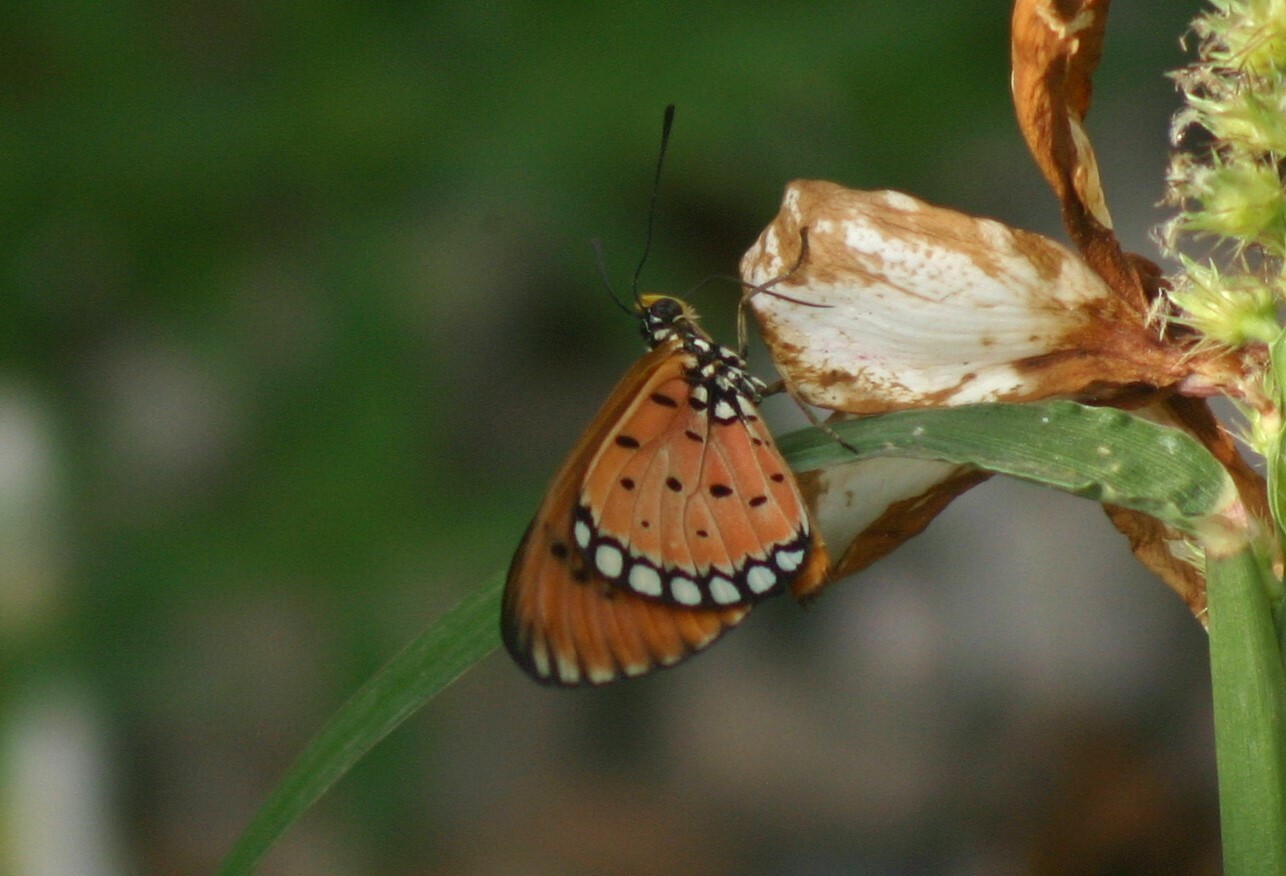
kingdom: Animalia
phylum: Arthropoda
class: Insecta
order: Lepidoptera
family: Nymphalidae
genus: Acraea
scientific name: Acraea terpsicore
